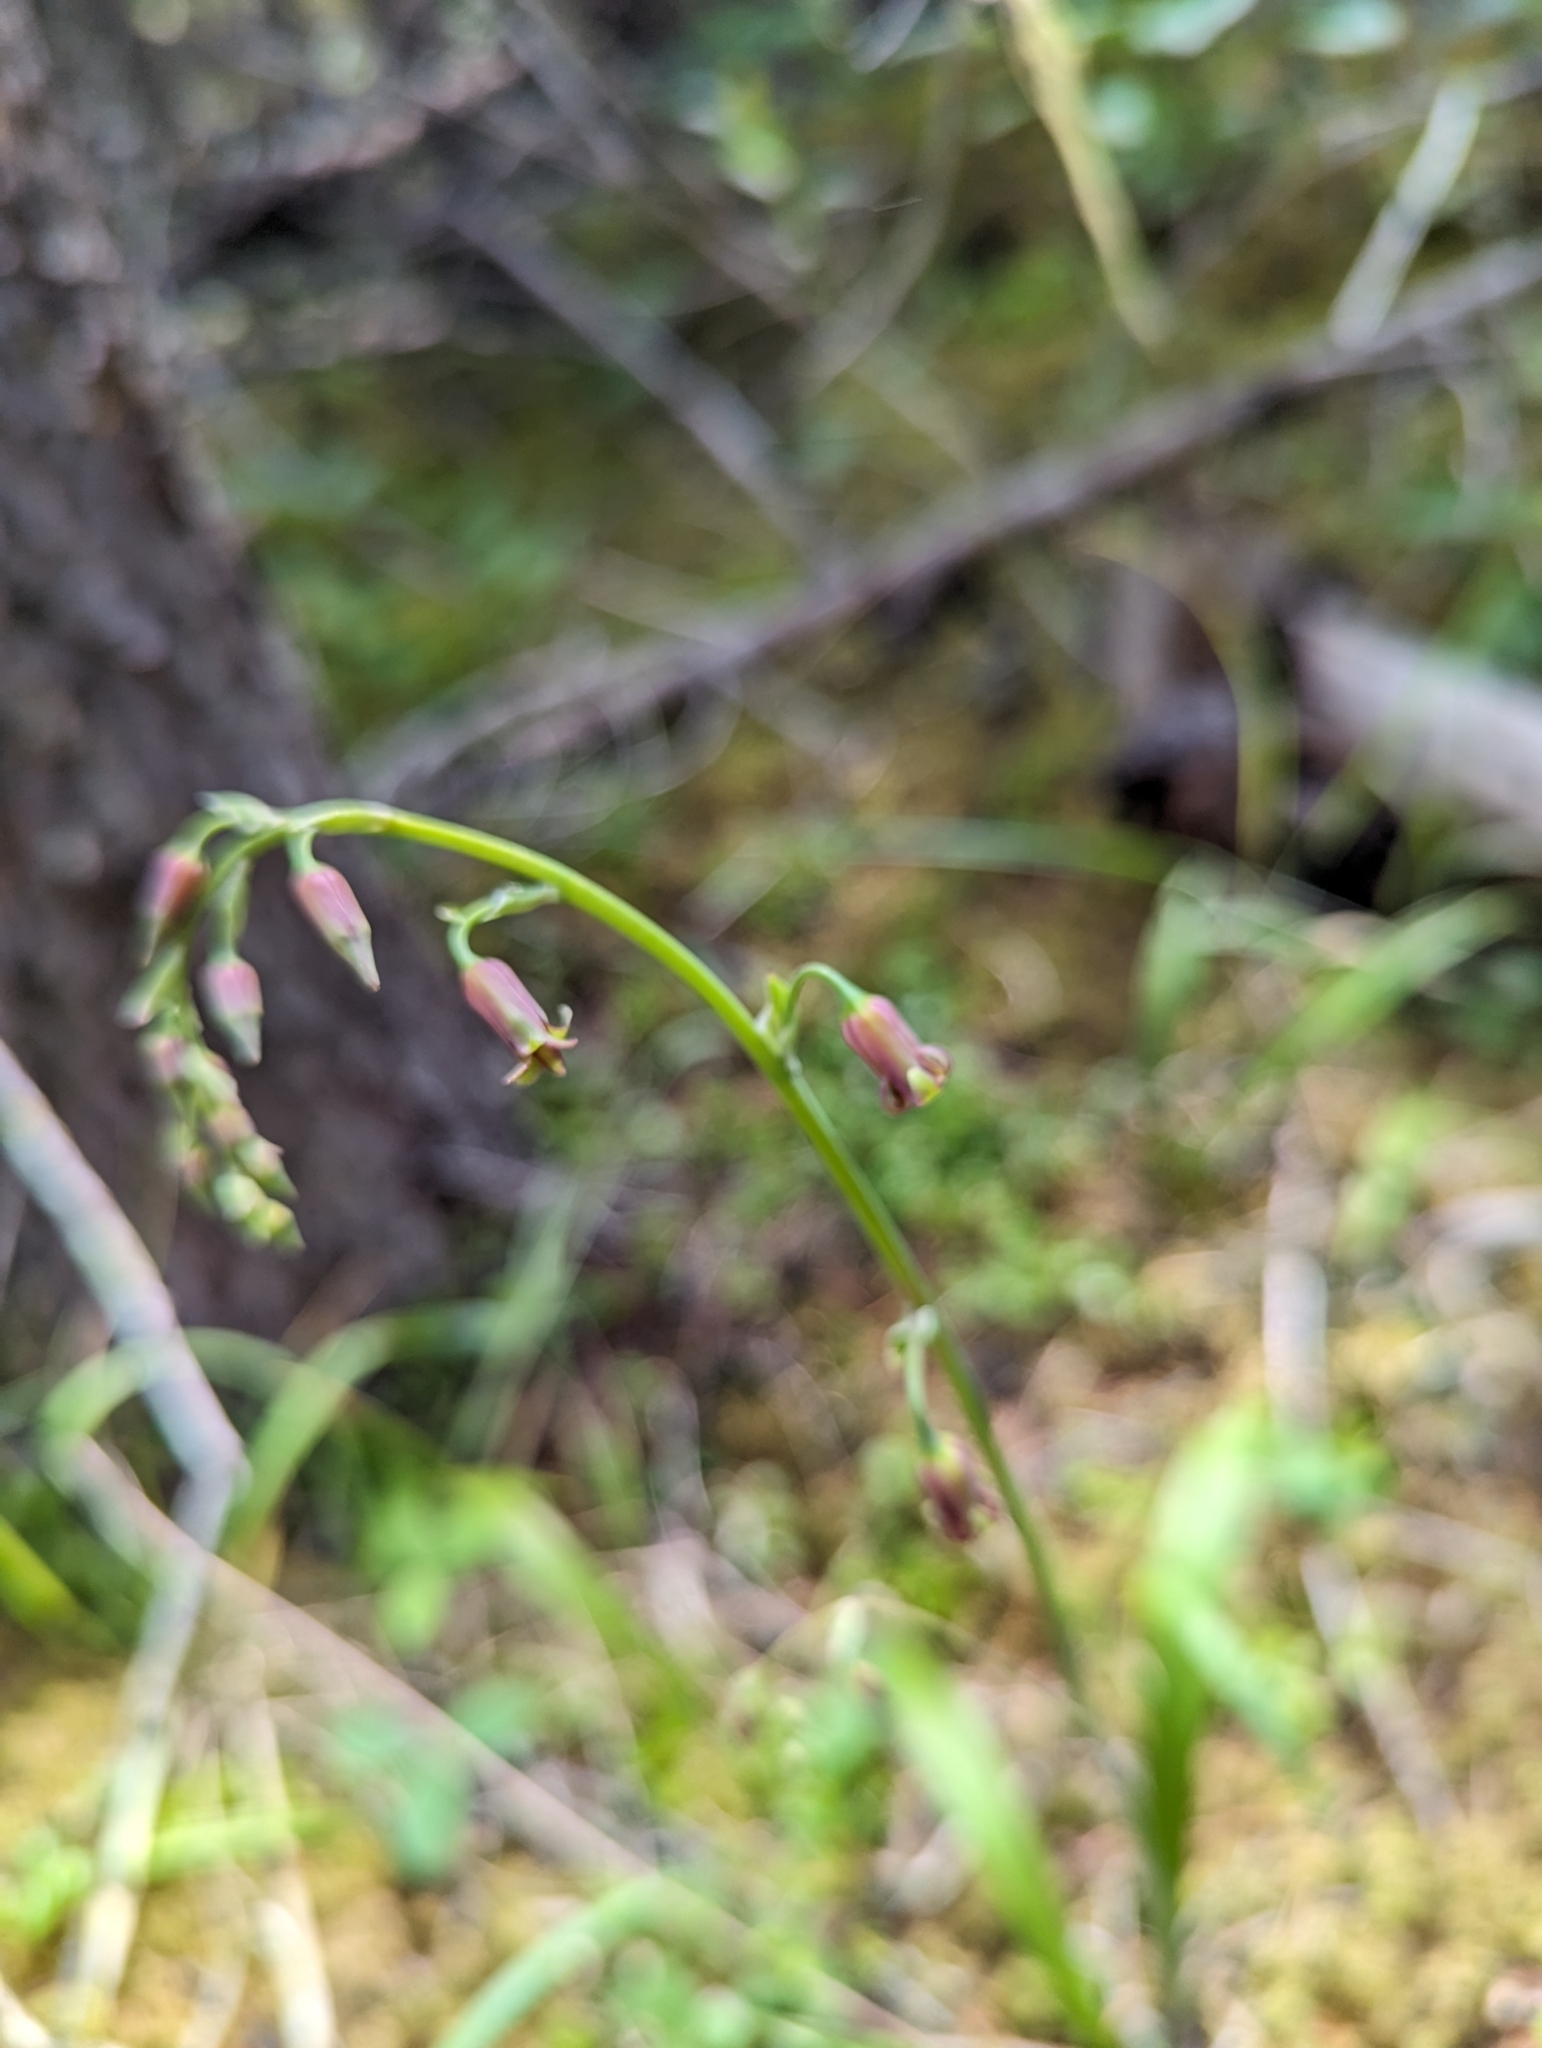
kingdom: Plantae
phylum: Tracheophyta
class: Liliopsida
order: Liliales
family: Melanthiaceae
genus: Anticlea
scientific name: Anticlea occidentalis
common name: Bronze-bells
